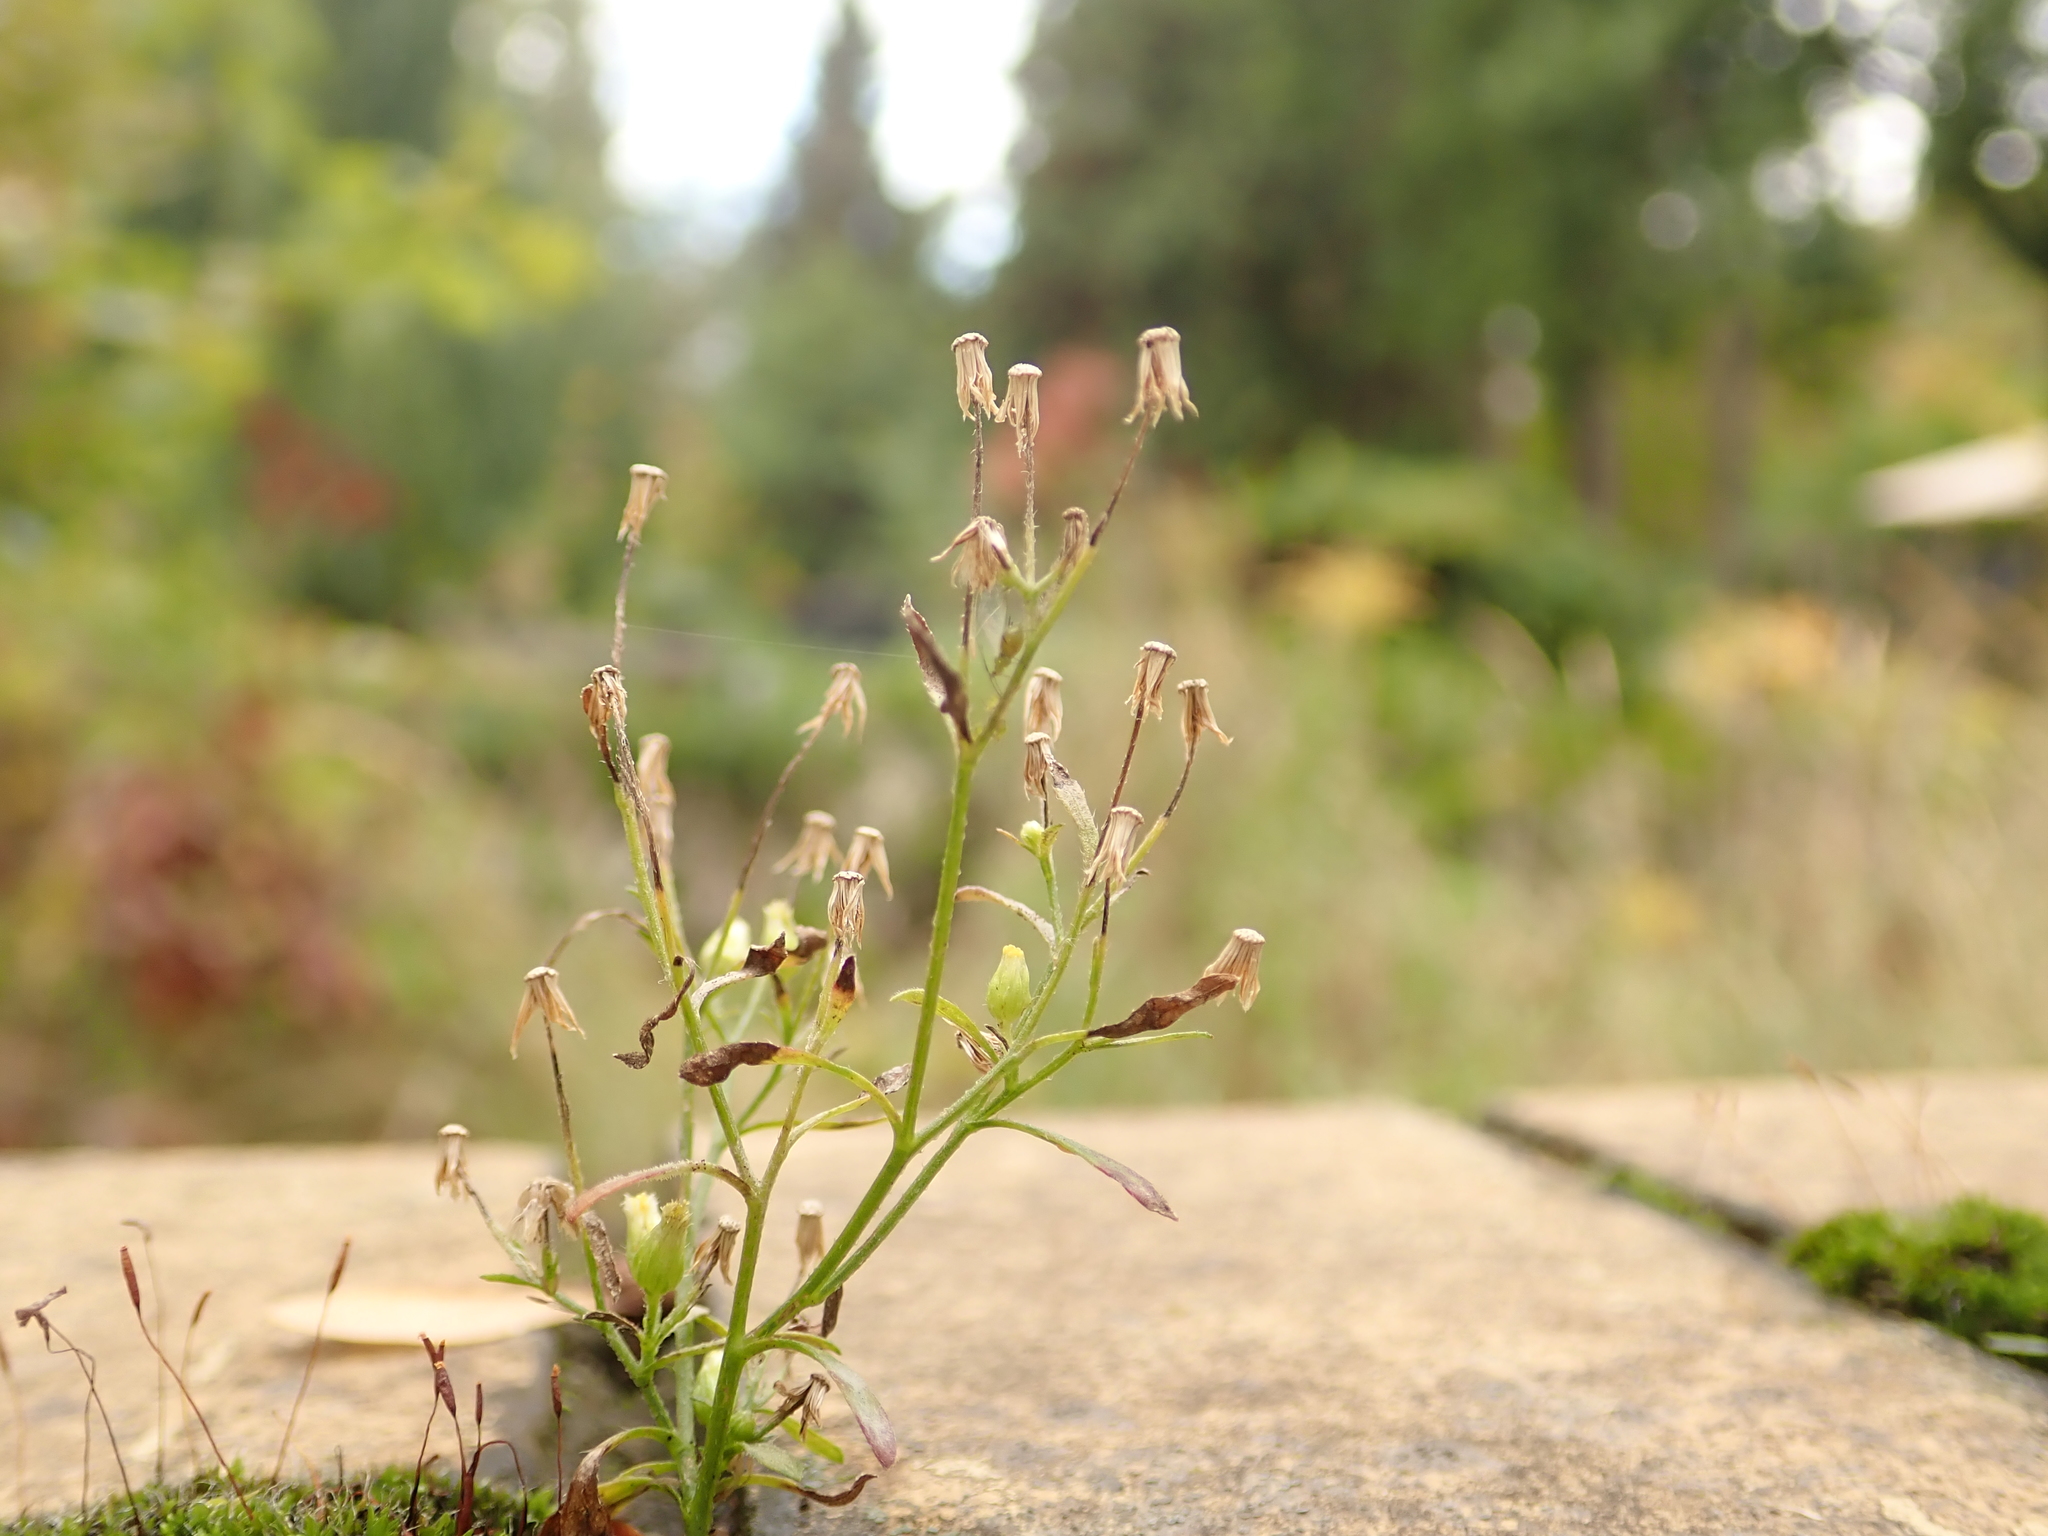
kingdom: Plantae
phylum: Tracheophyta
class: Magnoliopsida
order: Asterales
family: Asteraceae
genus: Erigeron
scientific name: Erigeron canadensis
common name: Canadian fleabane
